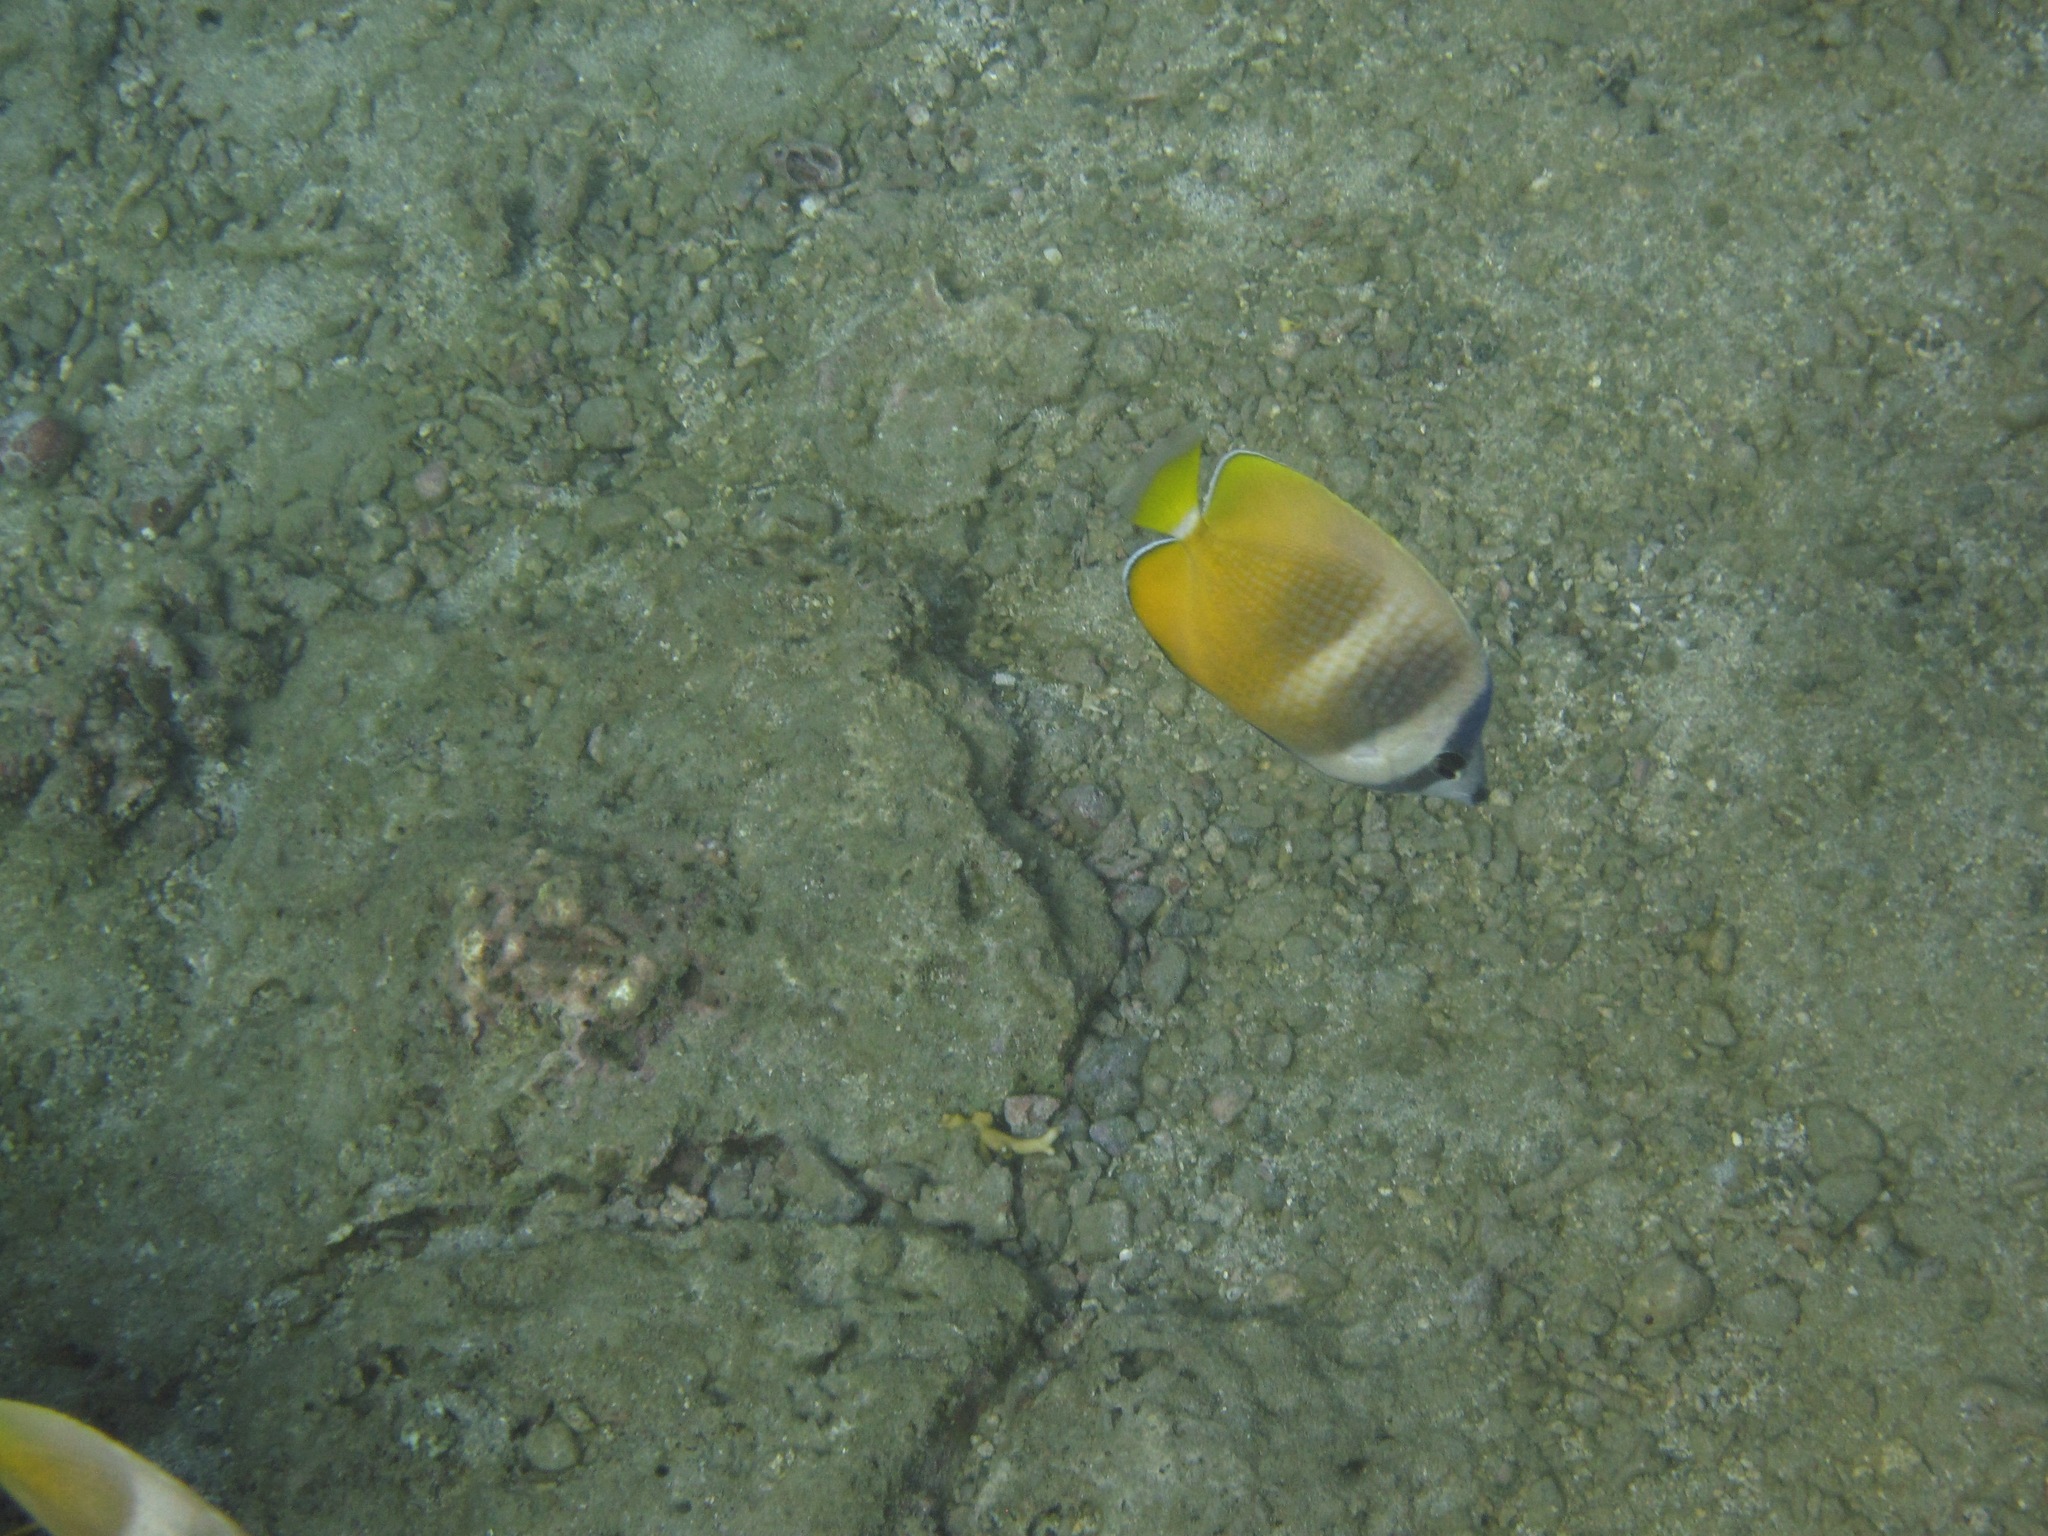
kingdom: Animalia
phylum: Chordata
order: Perciformes
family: Chaetodontidae
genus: Chaetodon
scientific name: Chaetodon kleinii
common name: Klein's butterflyfish
